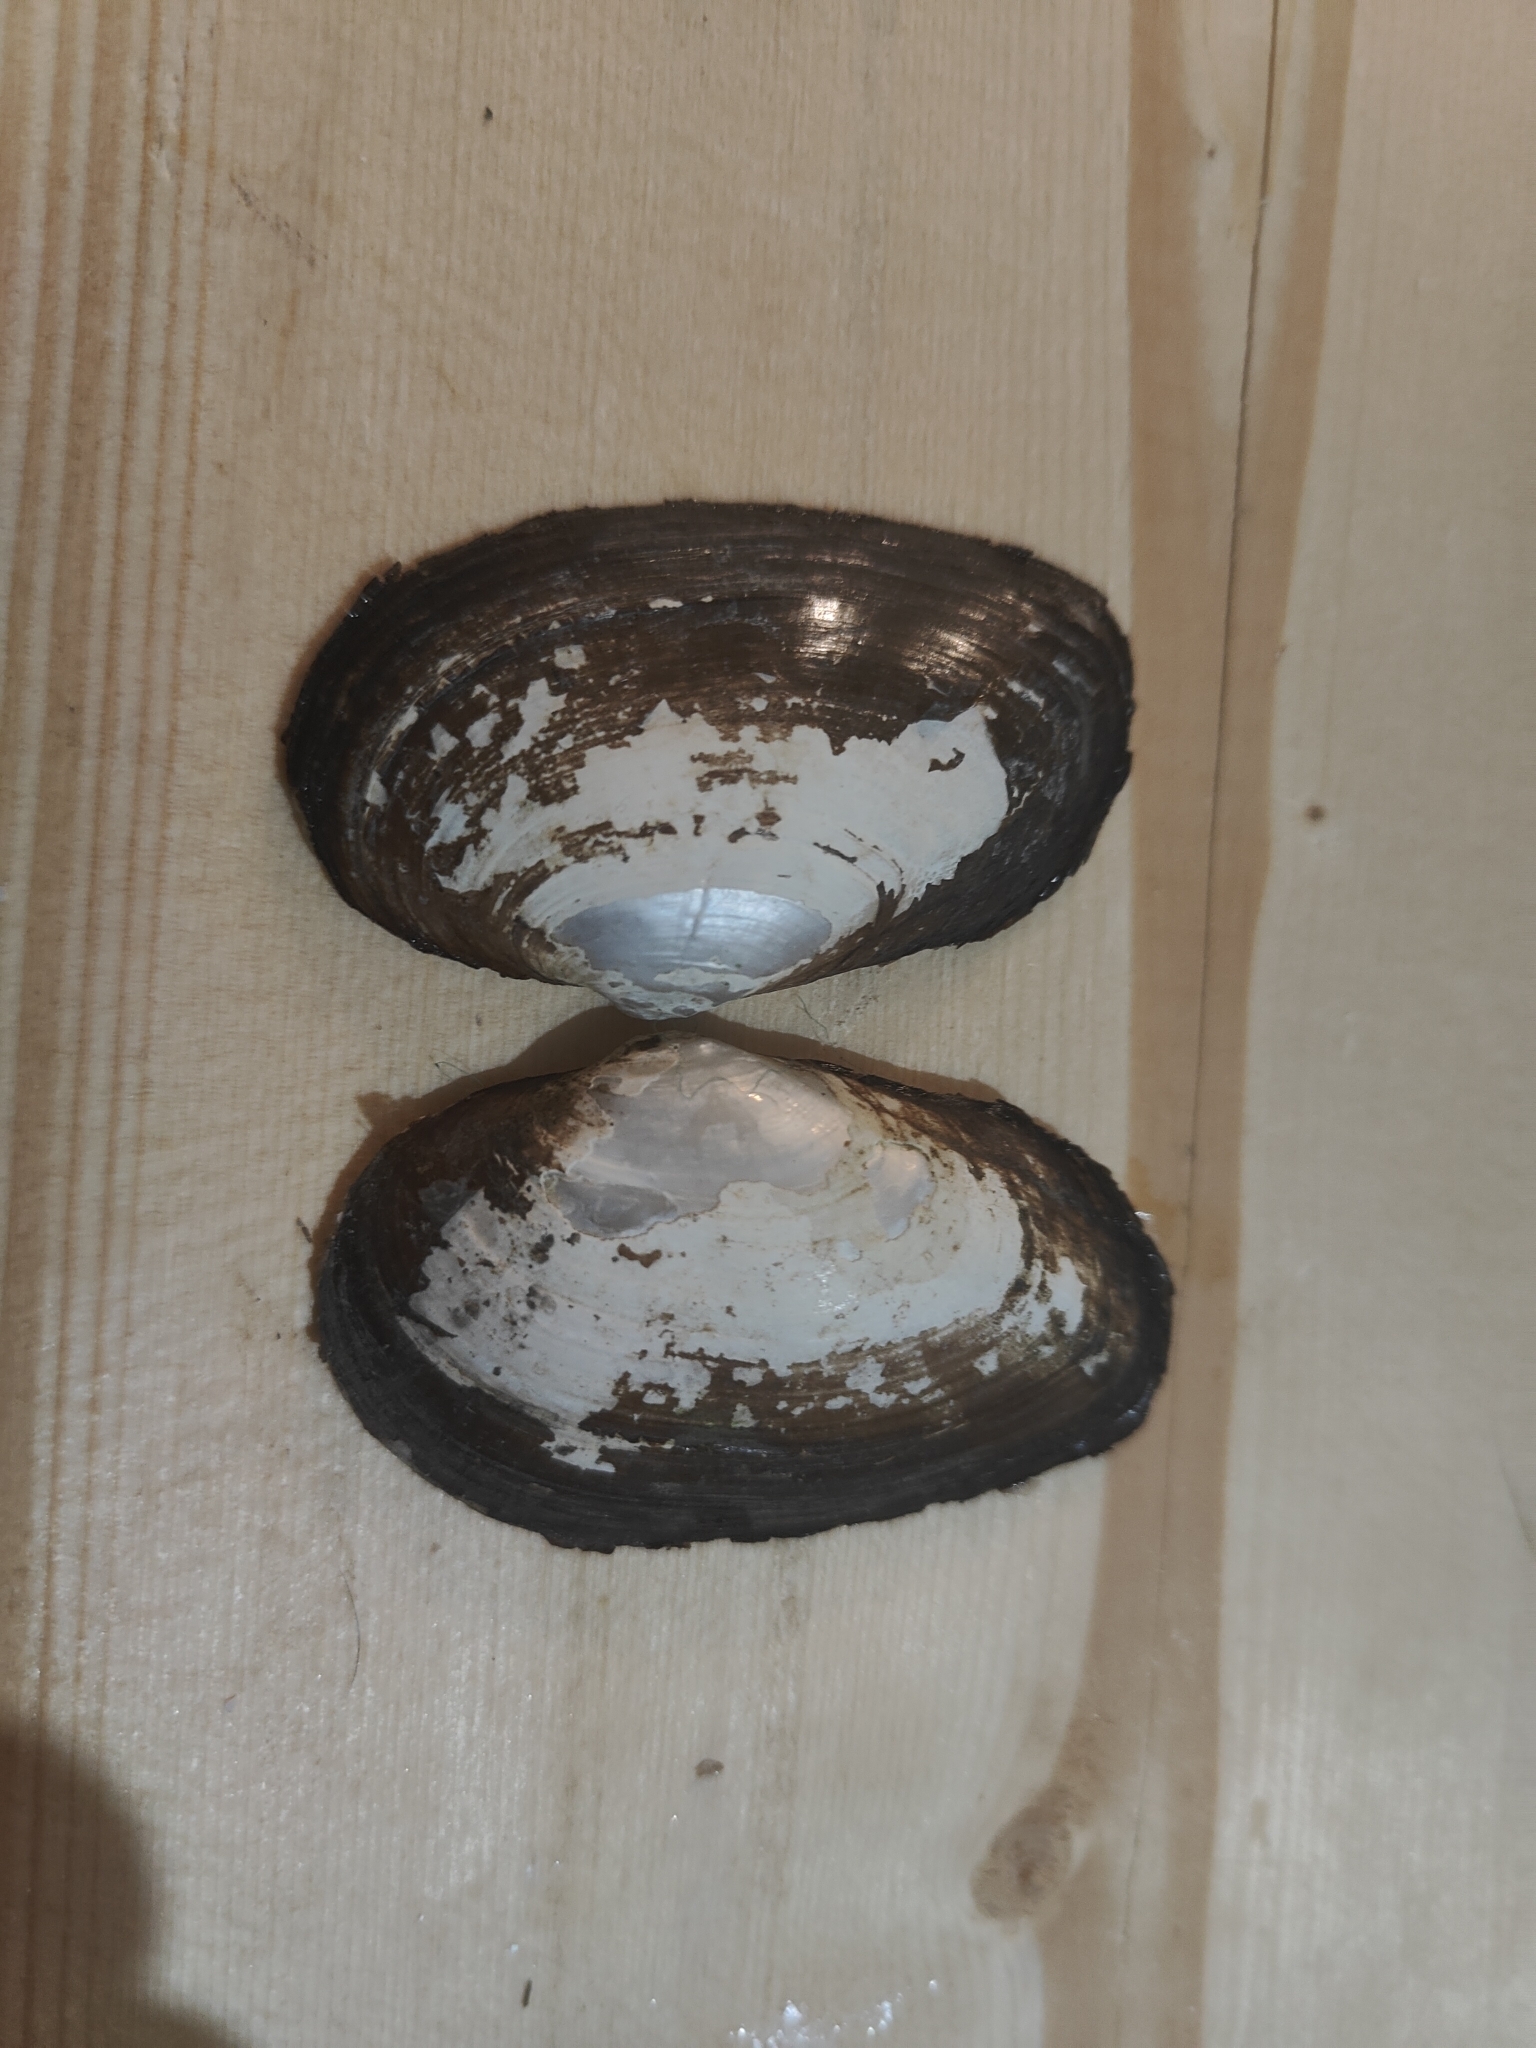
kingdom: Animalia
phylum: Mollusca
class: Bivalvia
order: Unionida
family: Unionidae
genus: Strophitus
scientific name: Strophitus undulatus
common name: Creeper
